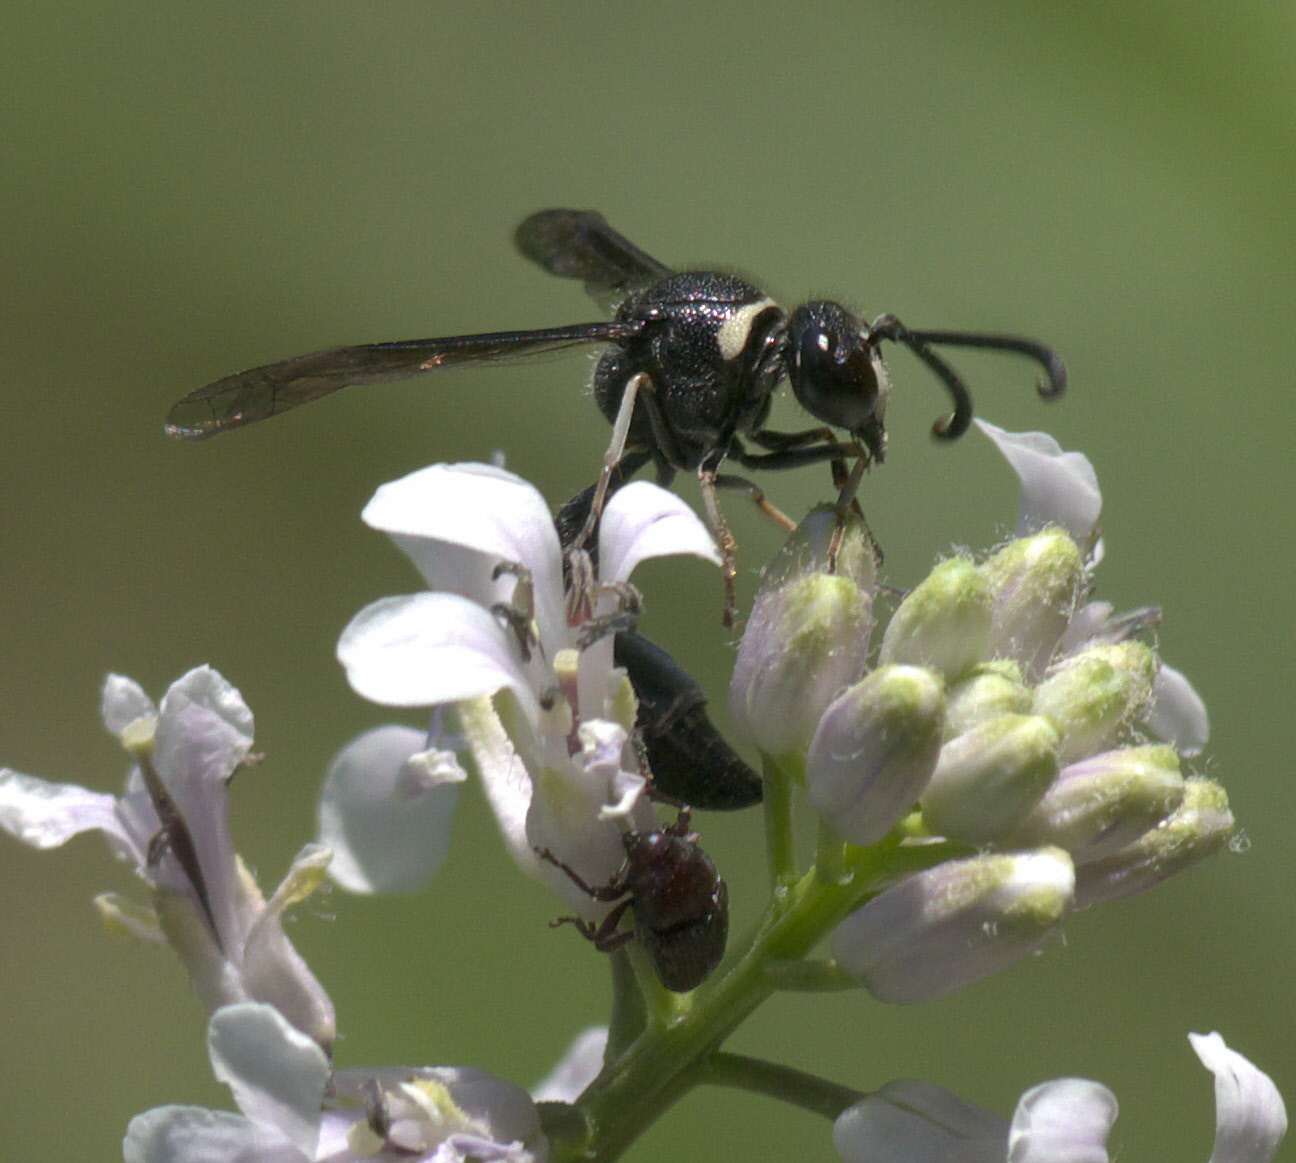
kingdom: Animalia
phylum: Arthropoda
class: Insecta
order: Hymenoptera
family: Vespidae
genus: Eumenes
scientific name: Eumenes fraternus
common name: Fraternal potter wasp
